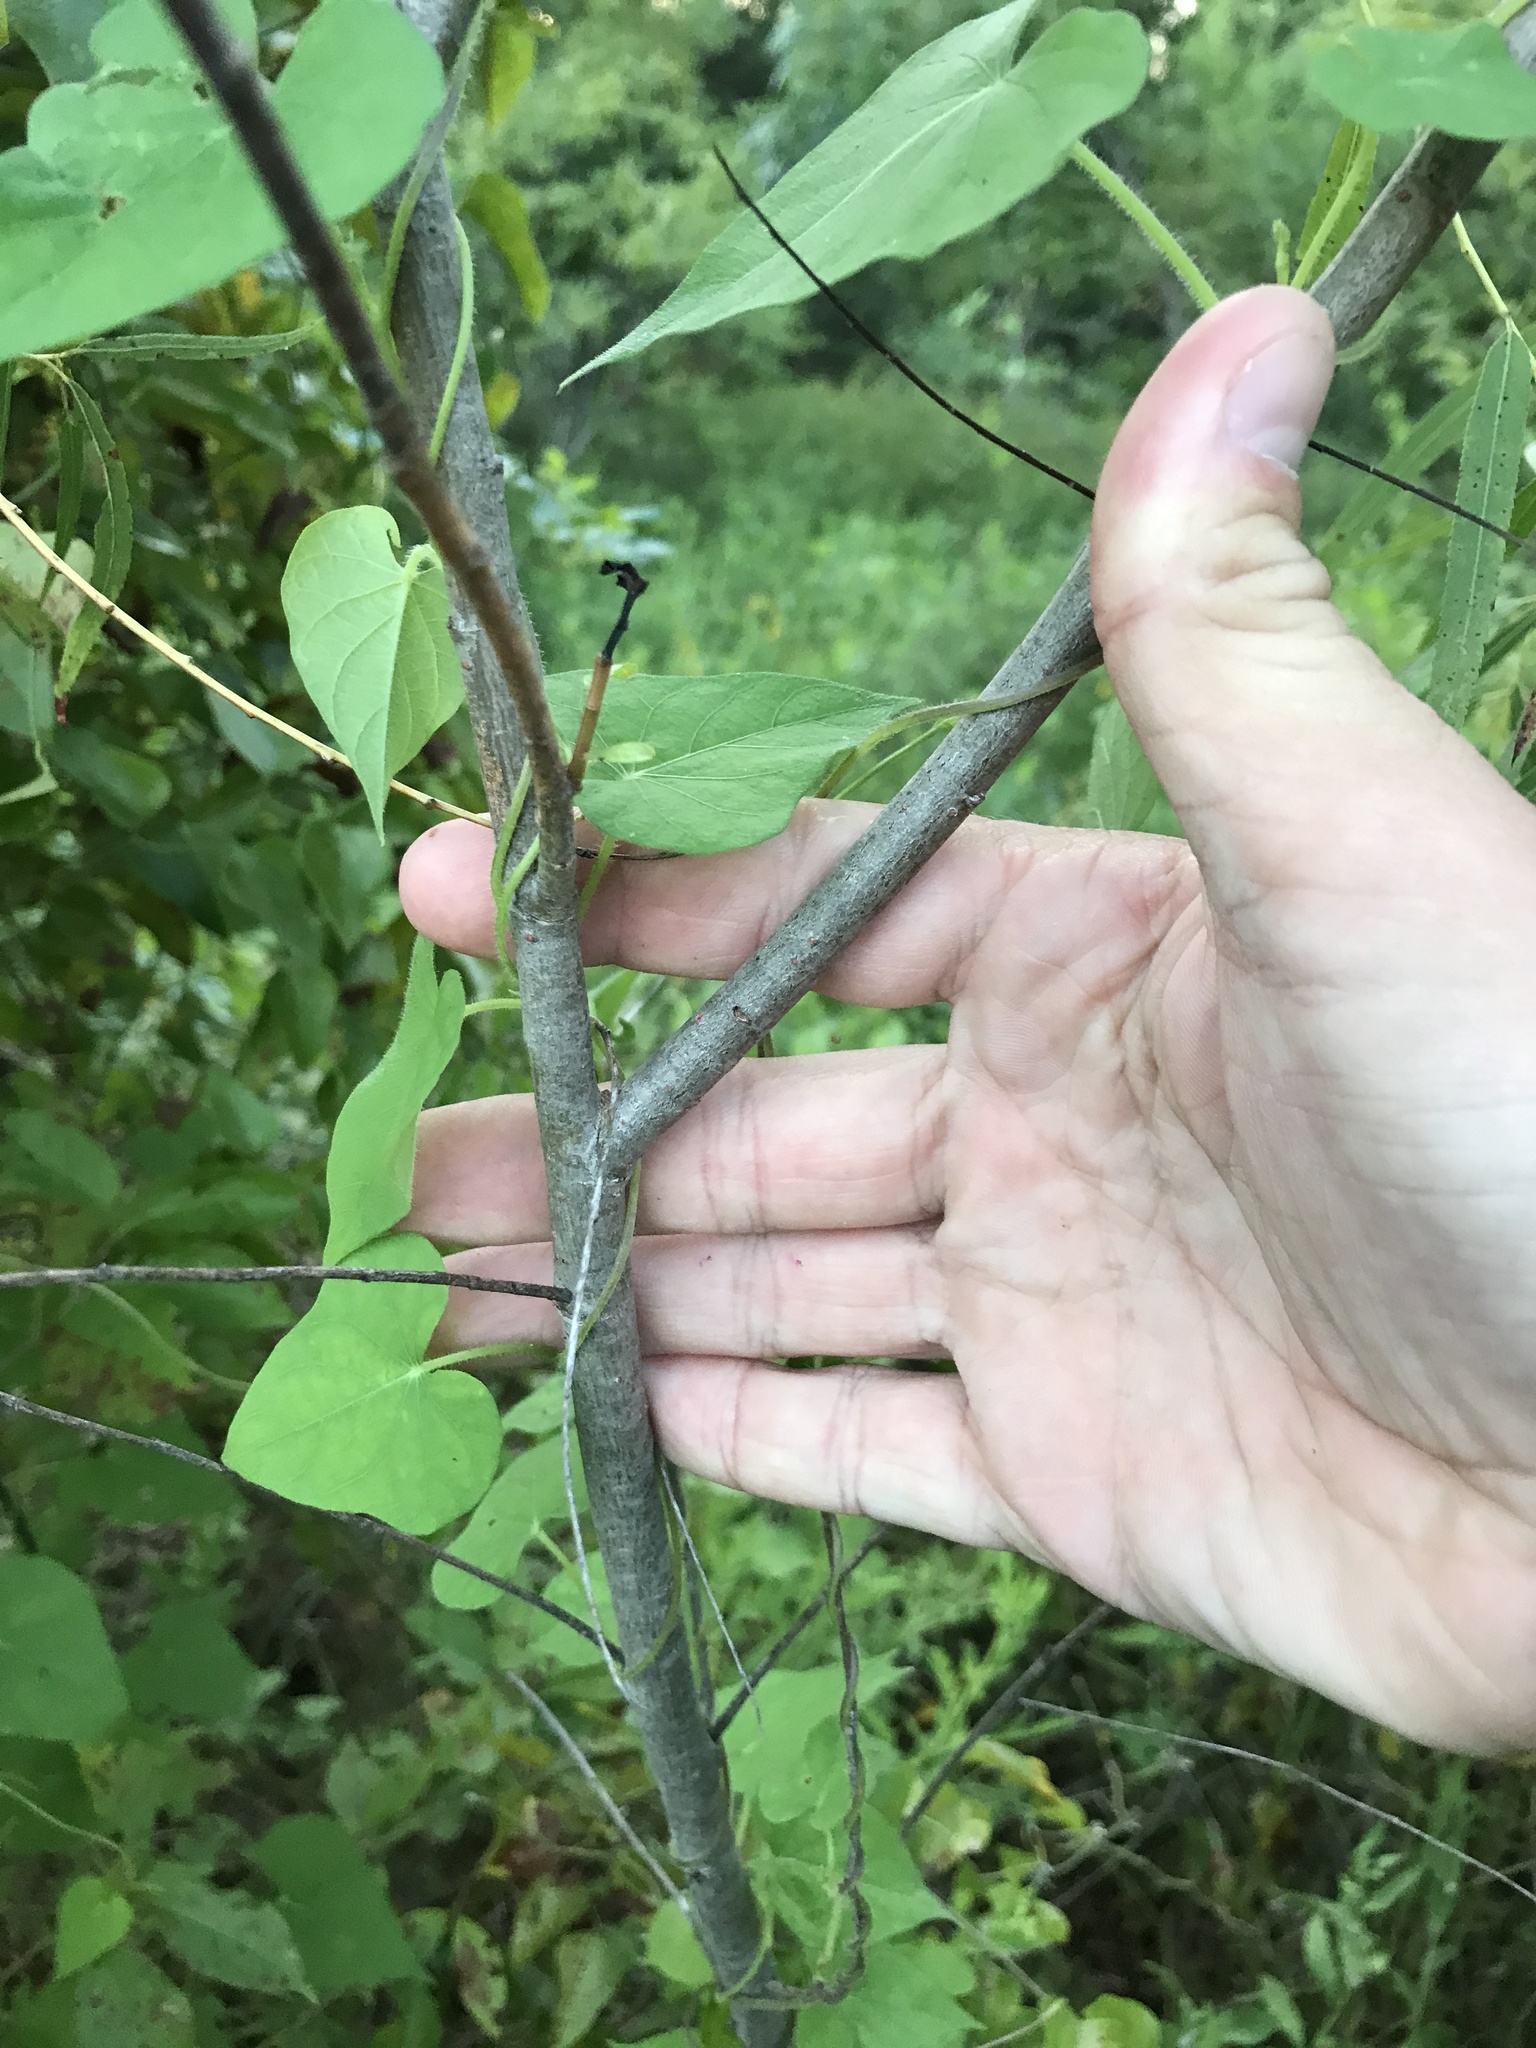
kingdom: Plantae
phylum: Tracheophyta
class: Magnoliopsida
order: Malpighiales
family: Salicaceae
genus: Salix
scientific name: Salix nigra
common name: Black willow
